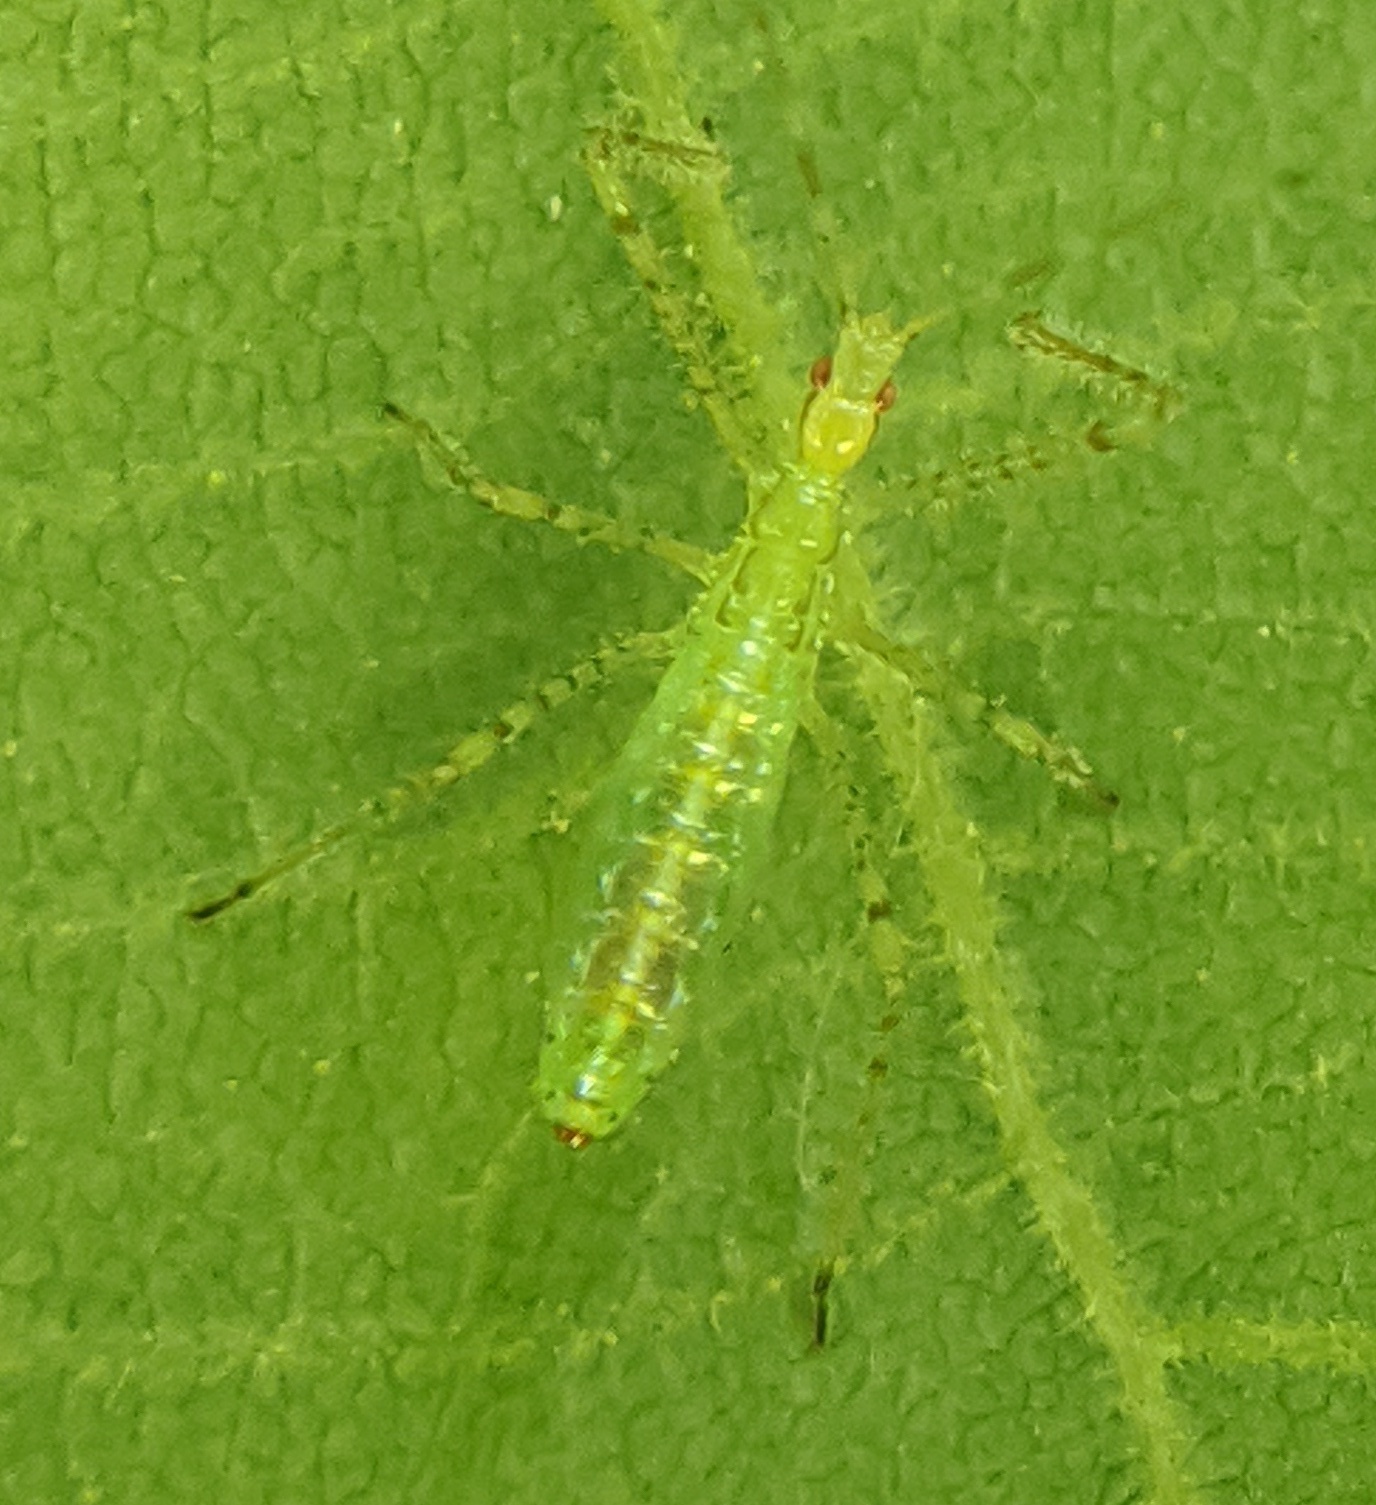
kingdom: Animalia
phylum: Arthropoda
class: Insecta
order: Hemiptera
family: Reduviidae
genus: Zelus
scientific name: Zelus luridus
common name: Pale green assassin bug
